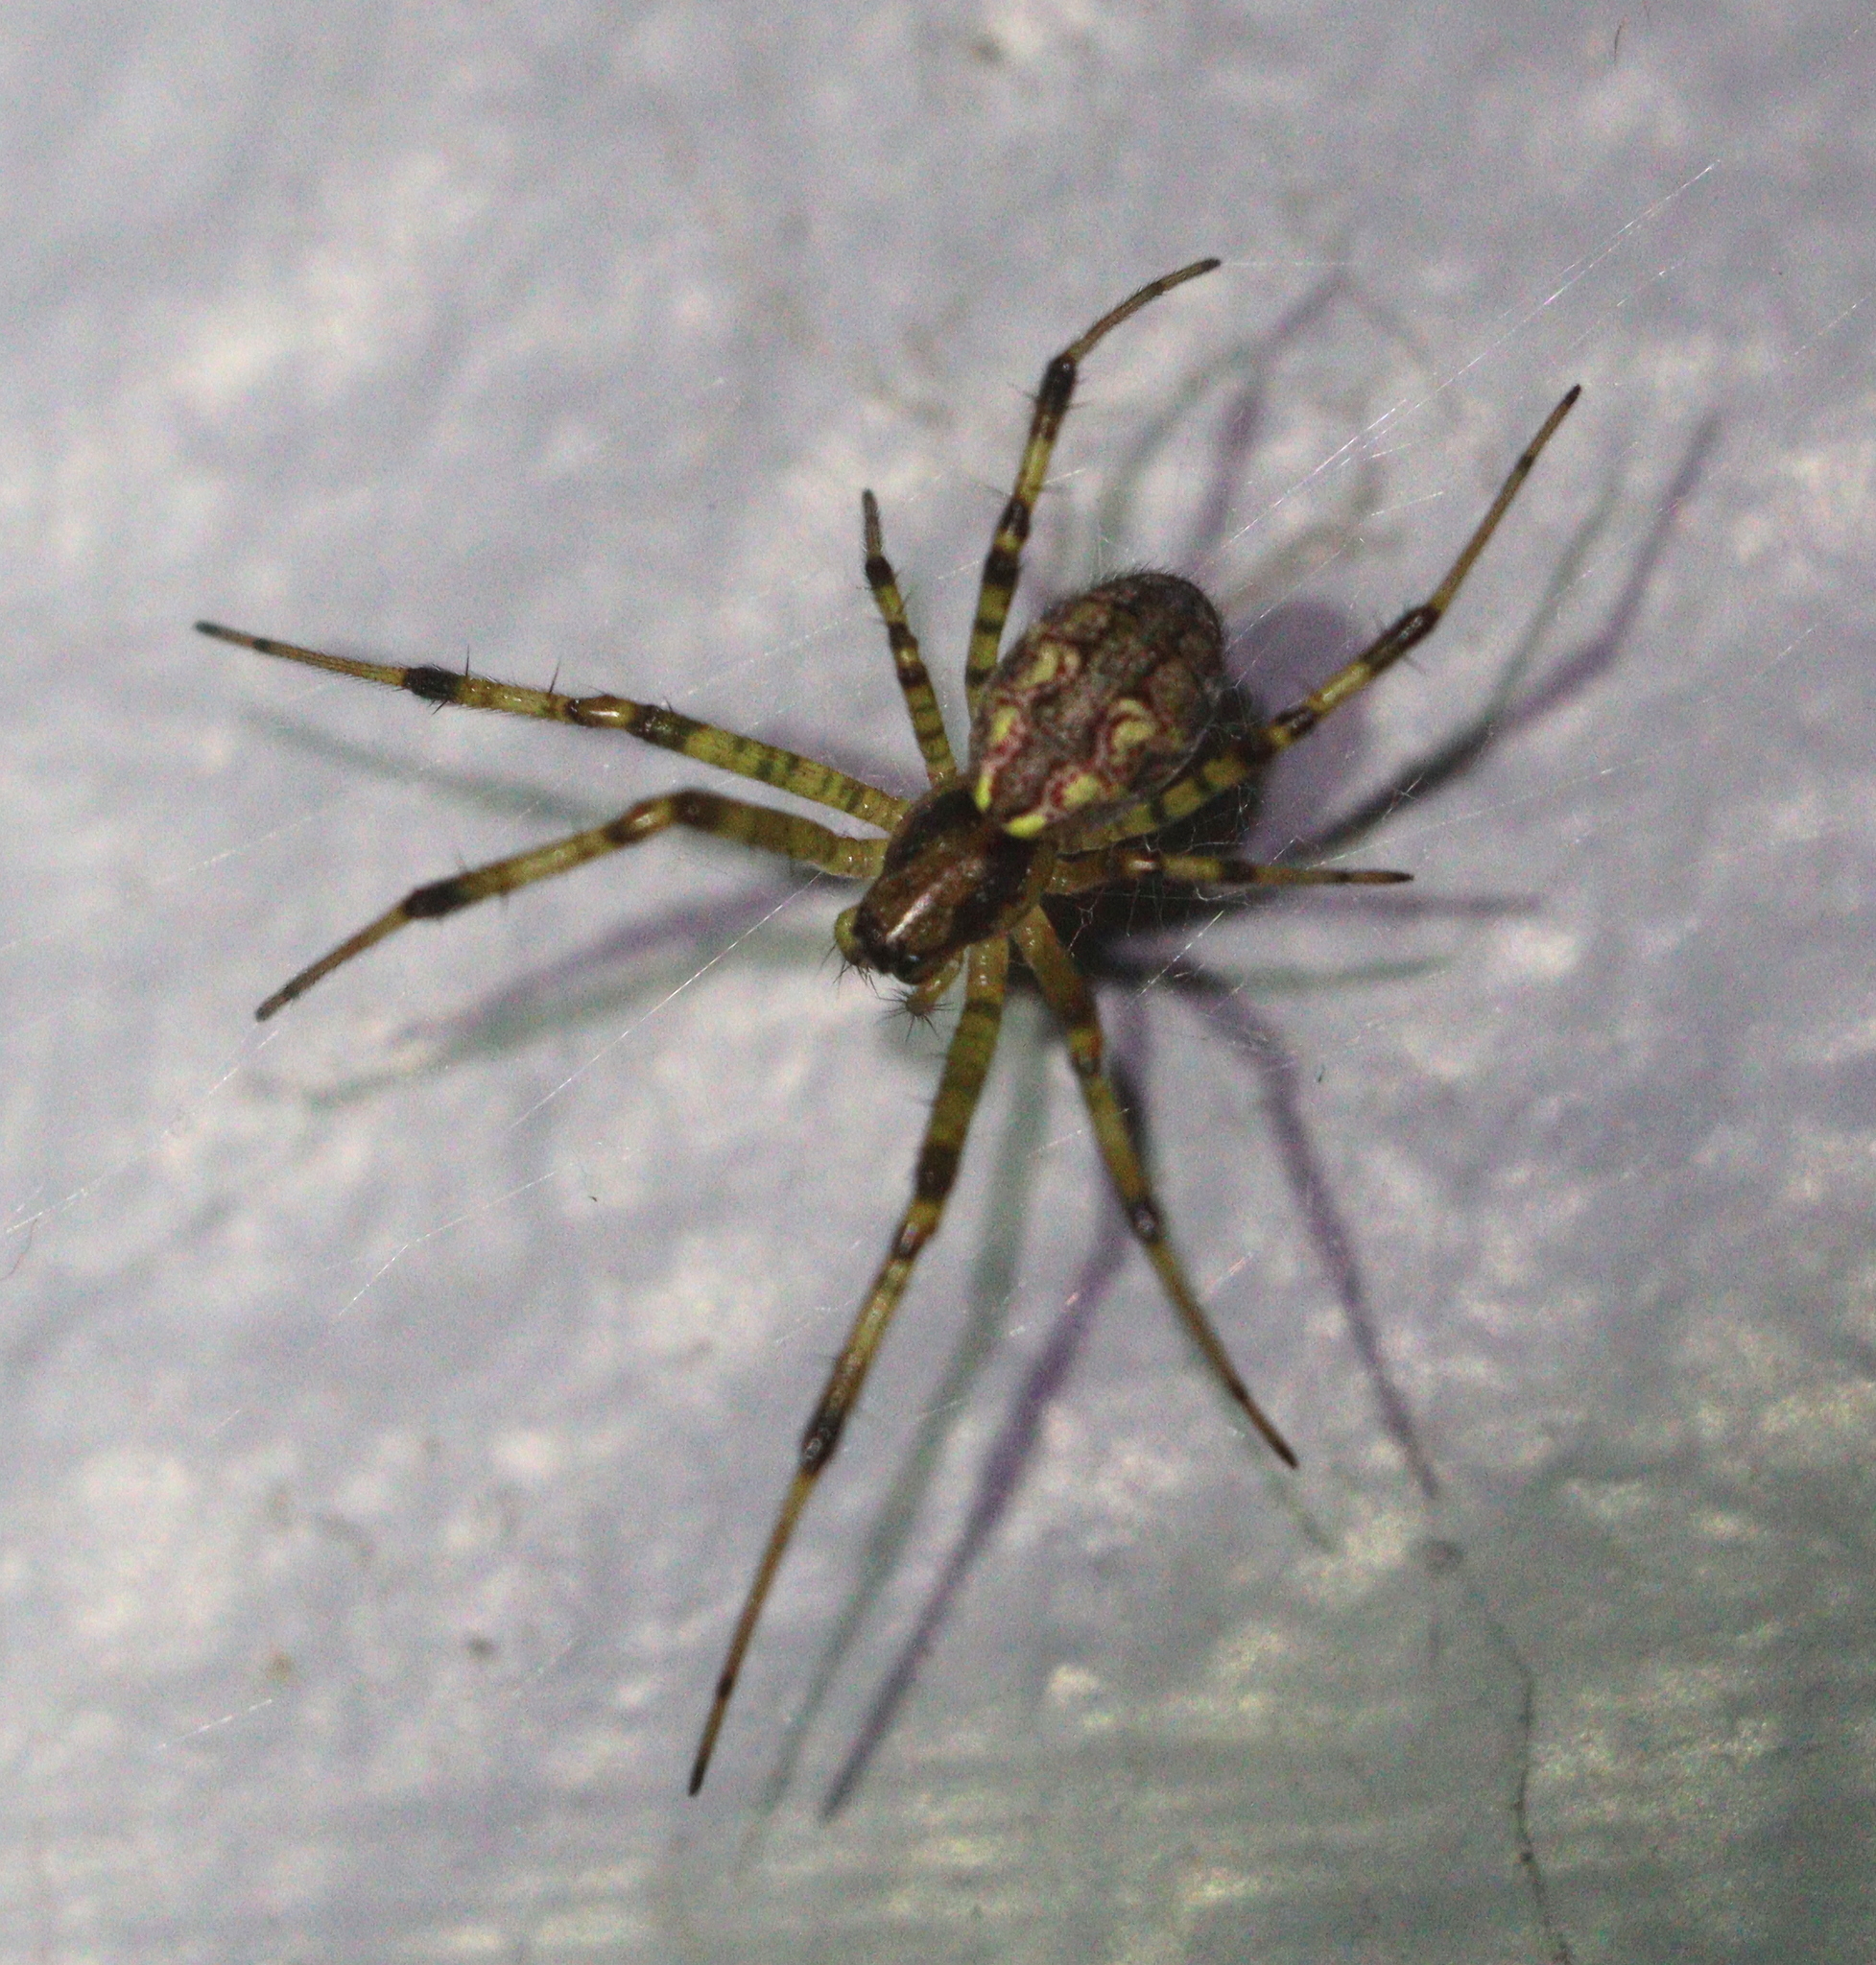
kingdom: Animalia
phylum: Arthropoda
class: Arachnida
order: Araneae
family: Araneidae
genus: Nephilengys
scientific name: Nephilengys malabarensis
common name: Asian hermit spider
